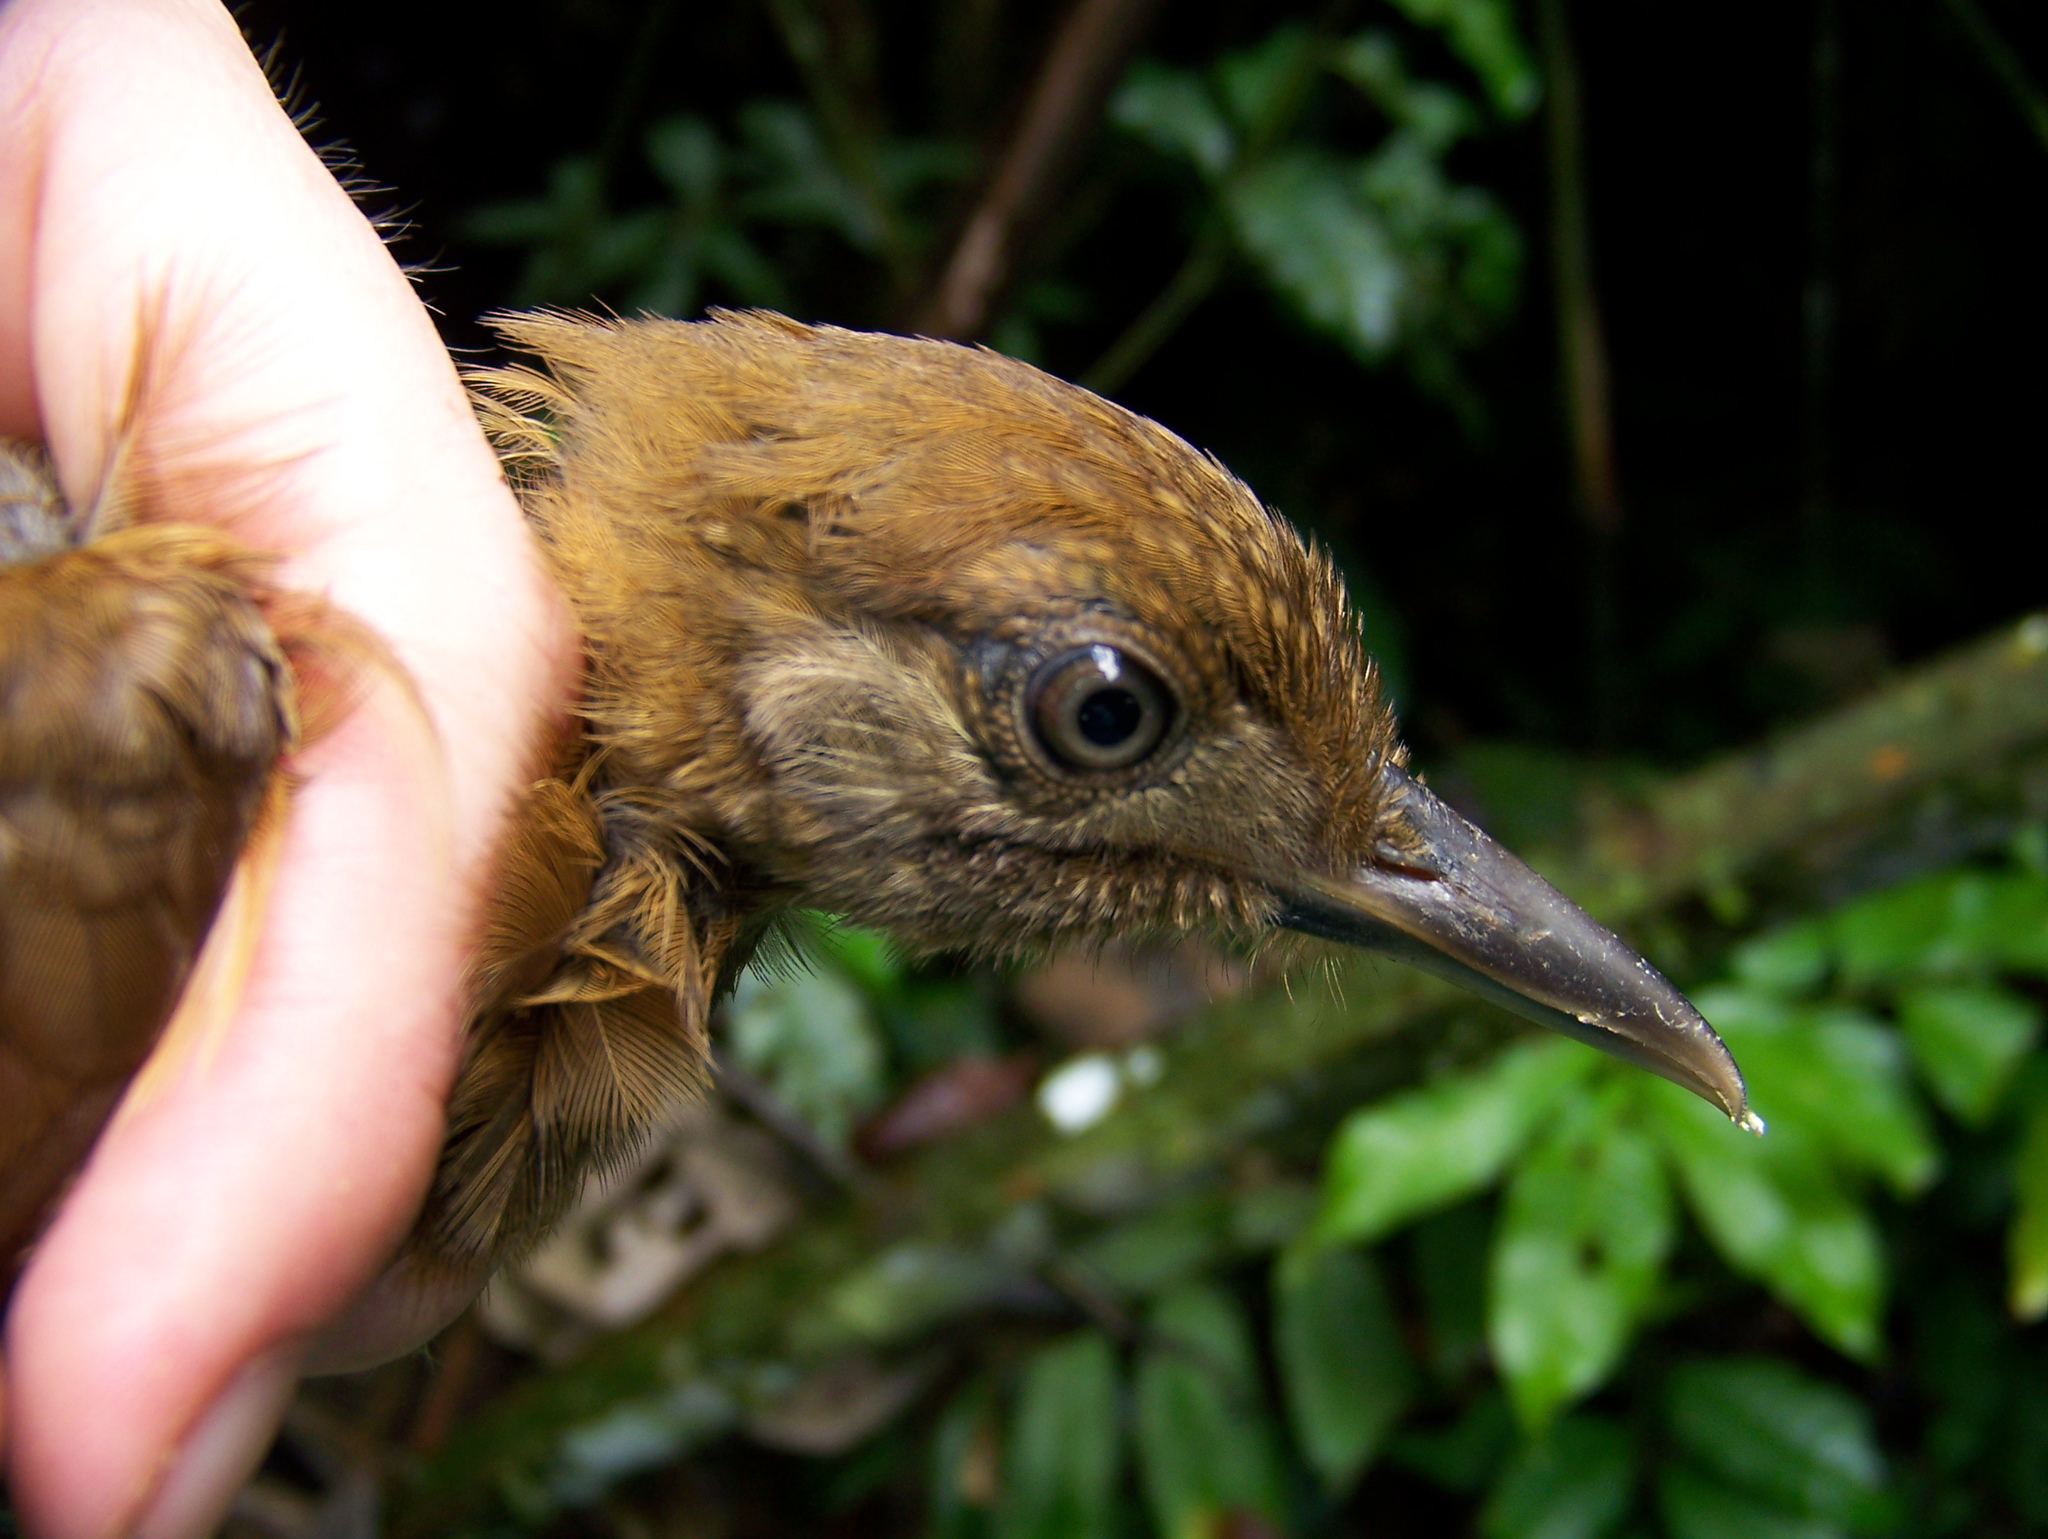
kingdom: Animalia
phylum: Chordata
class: Aves
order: Passeriformes
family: Furnariidae
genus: Dendrocincla
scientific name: Dendrocincla fuliginosa
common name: Plain-brown woodcreeper
